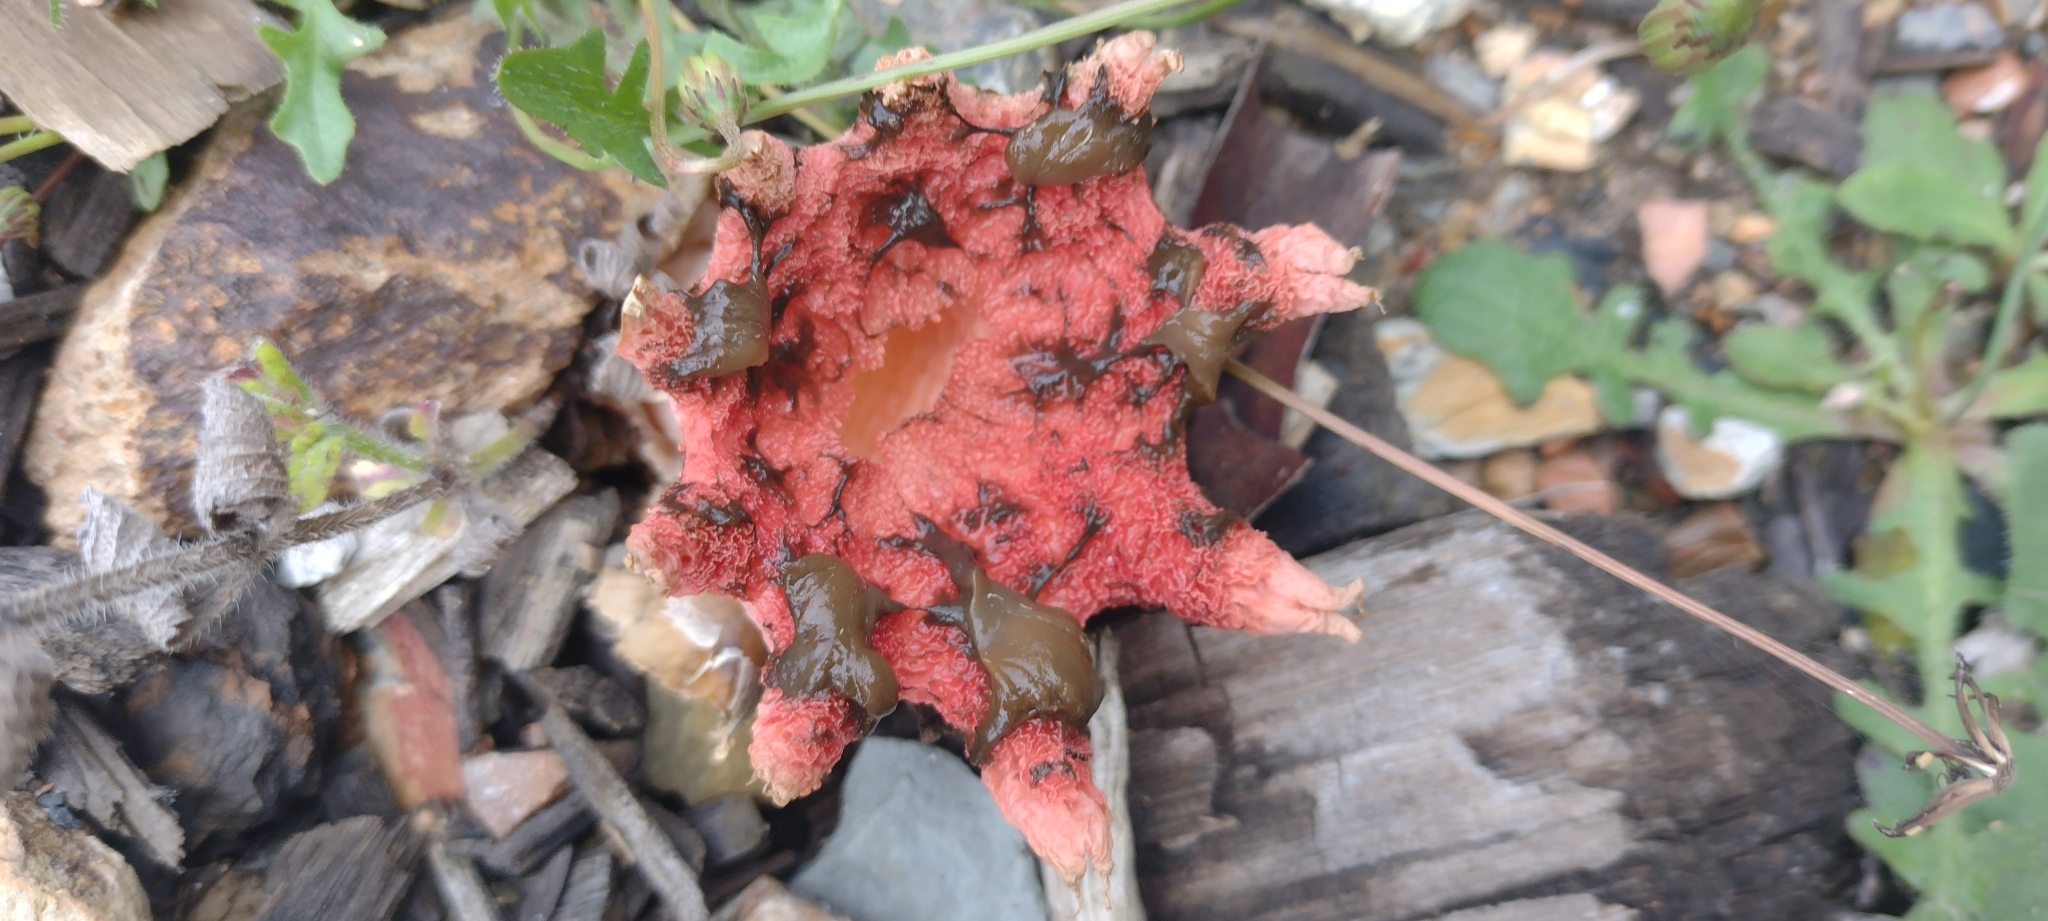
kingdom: Fungi
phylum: Basidiomycota
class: Agaricomycetes
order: Phallales
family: Phallaceae
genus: Aseroe
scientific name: Aseroe rubra
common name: Starfish fungus
